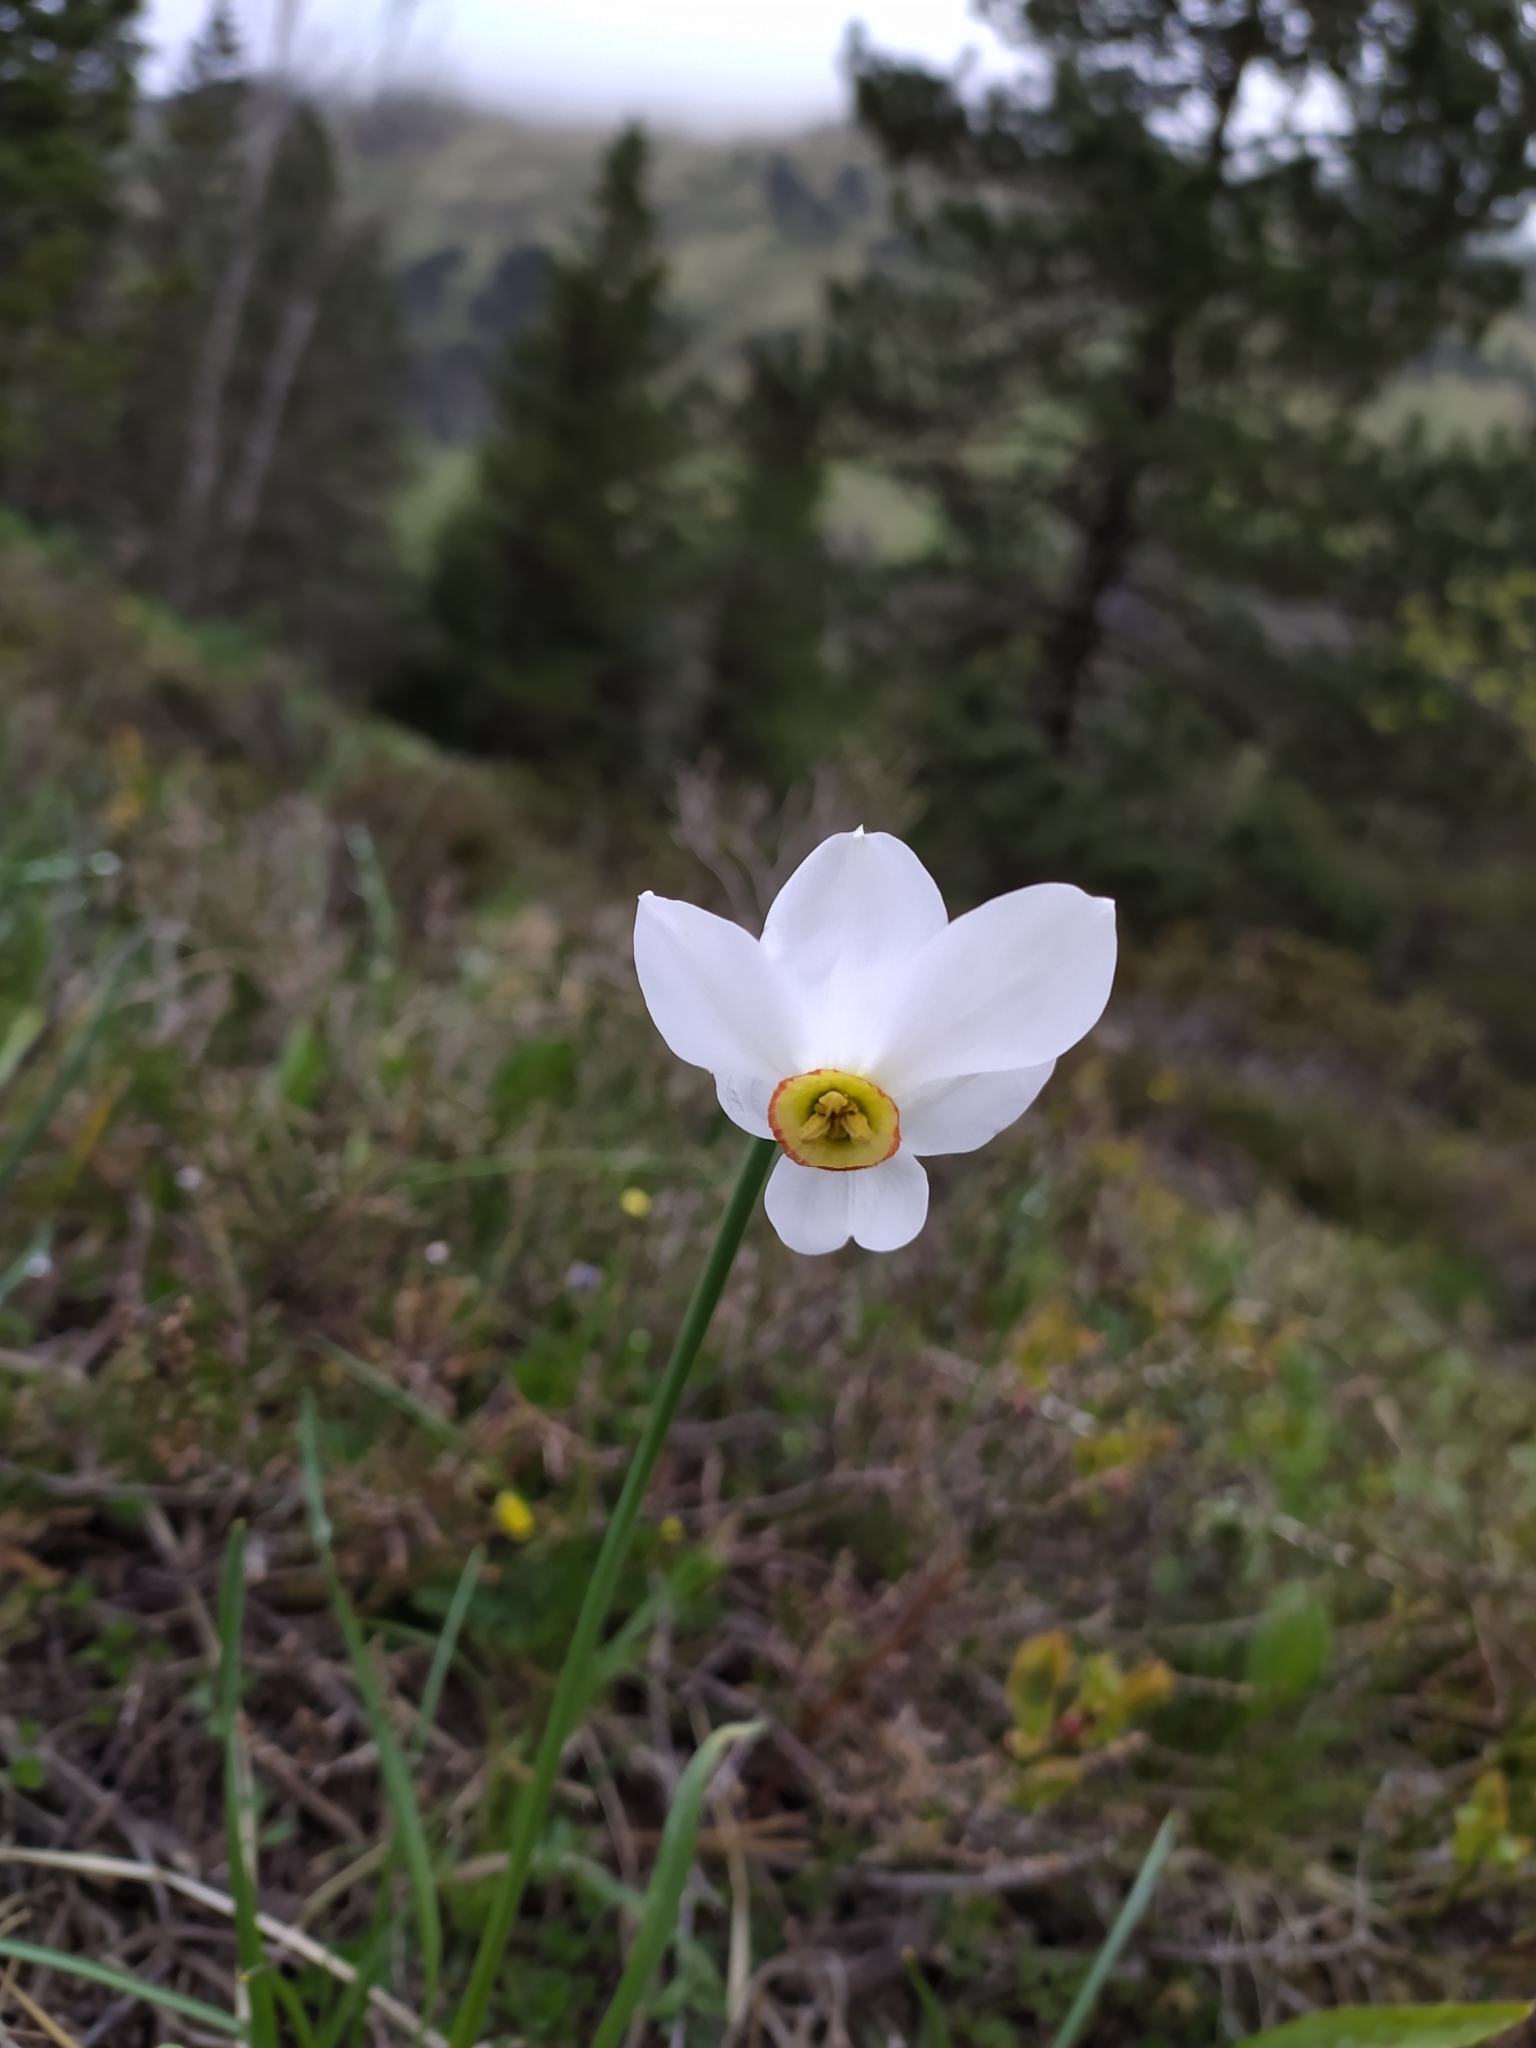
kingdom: Plantae
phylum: Tracheophyta
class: Liliopsida
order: Asparagales
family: Amaryllidaceae
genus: Narcissus
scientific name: Narcissus poeticus
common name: Pheasant's-eye daffodil
